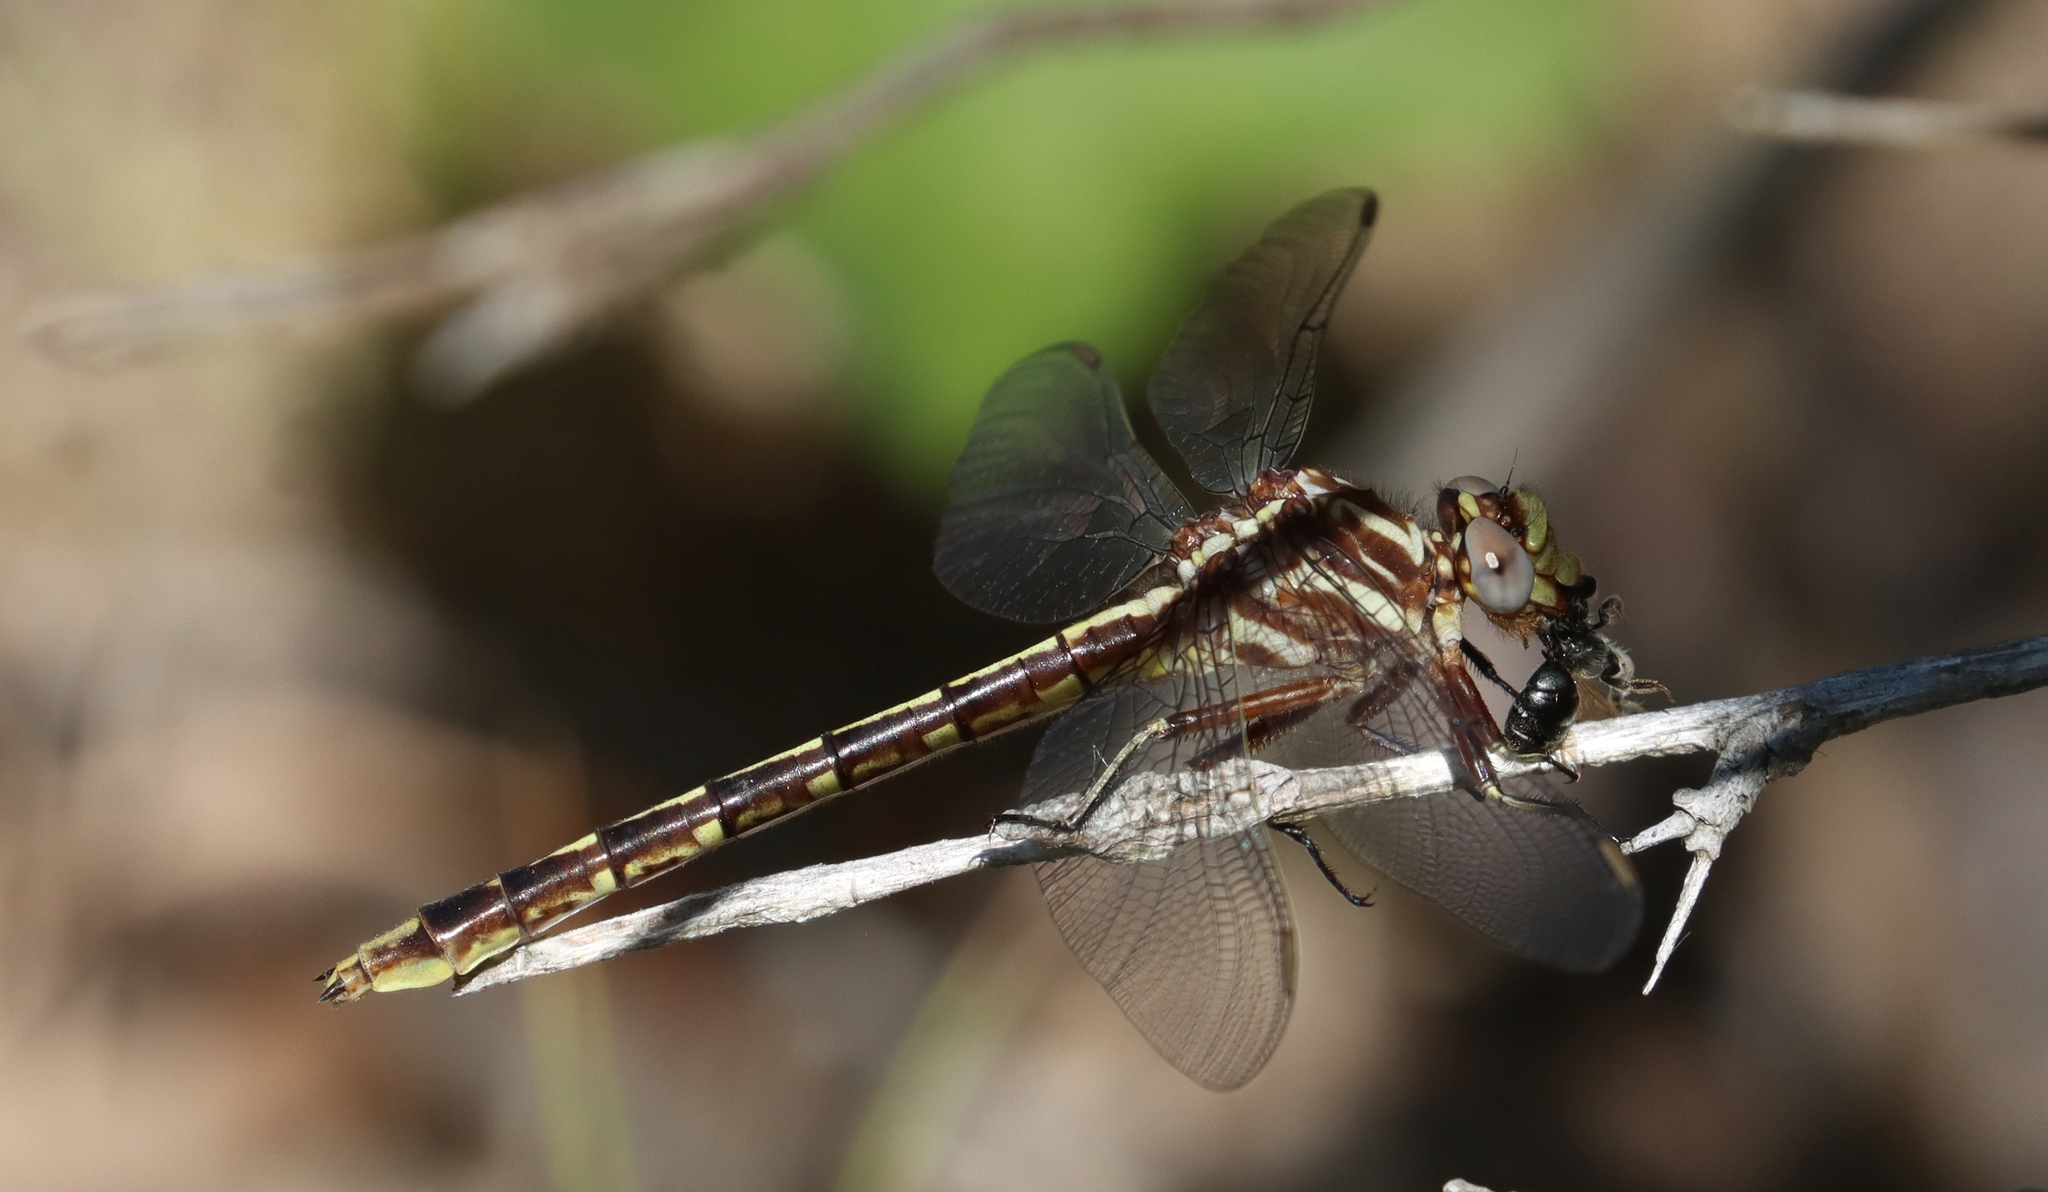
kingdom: Animalia
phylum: Arthropoda
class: Insecta
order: Odonata
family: Gomphidae
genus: Phanogomphus
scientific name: Phanogomphus lividus
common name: Ashy clubtail
